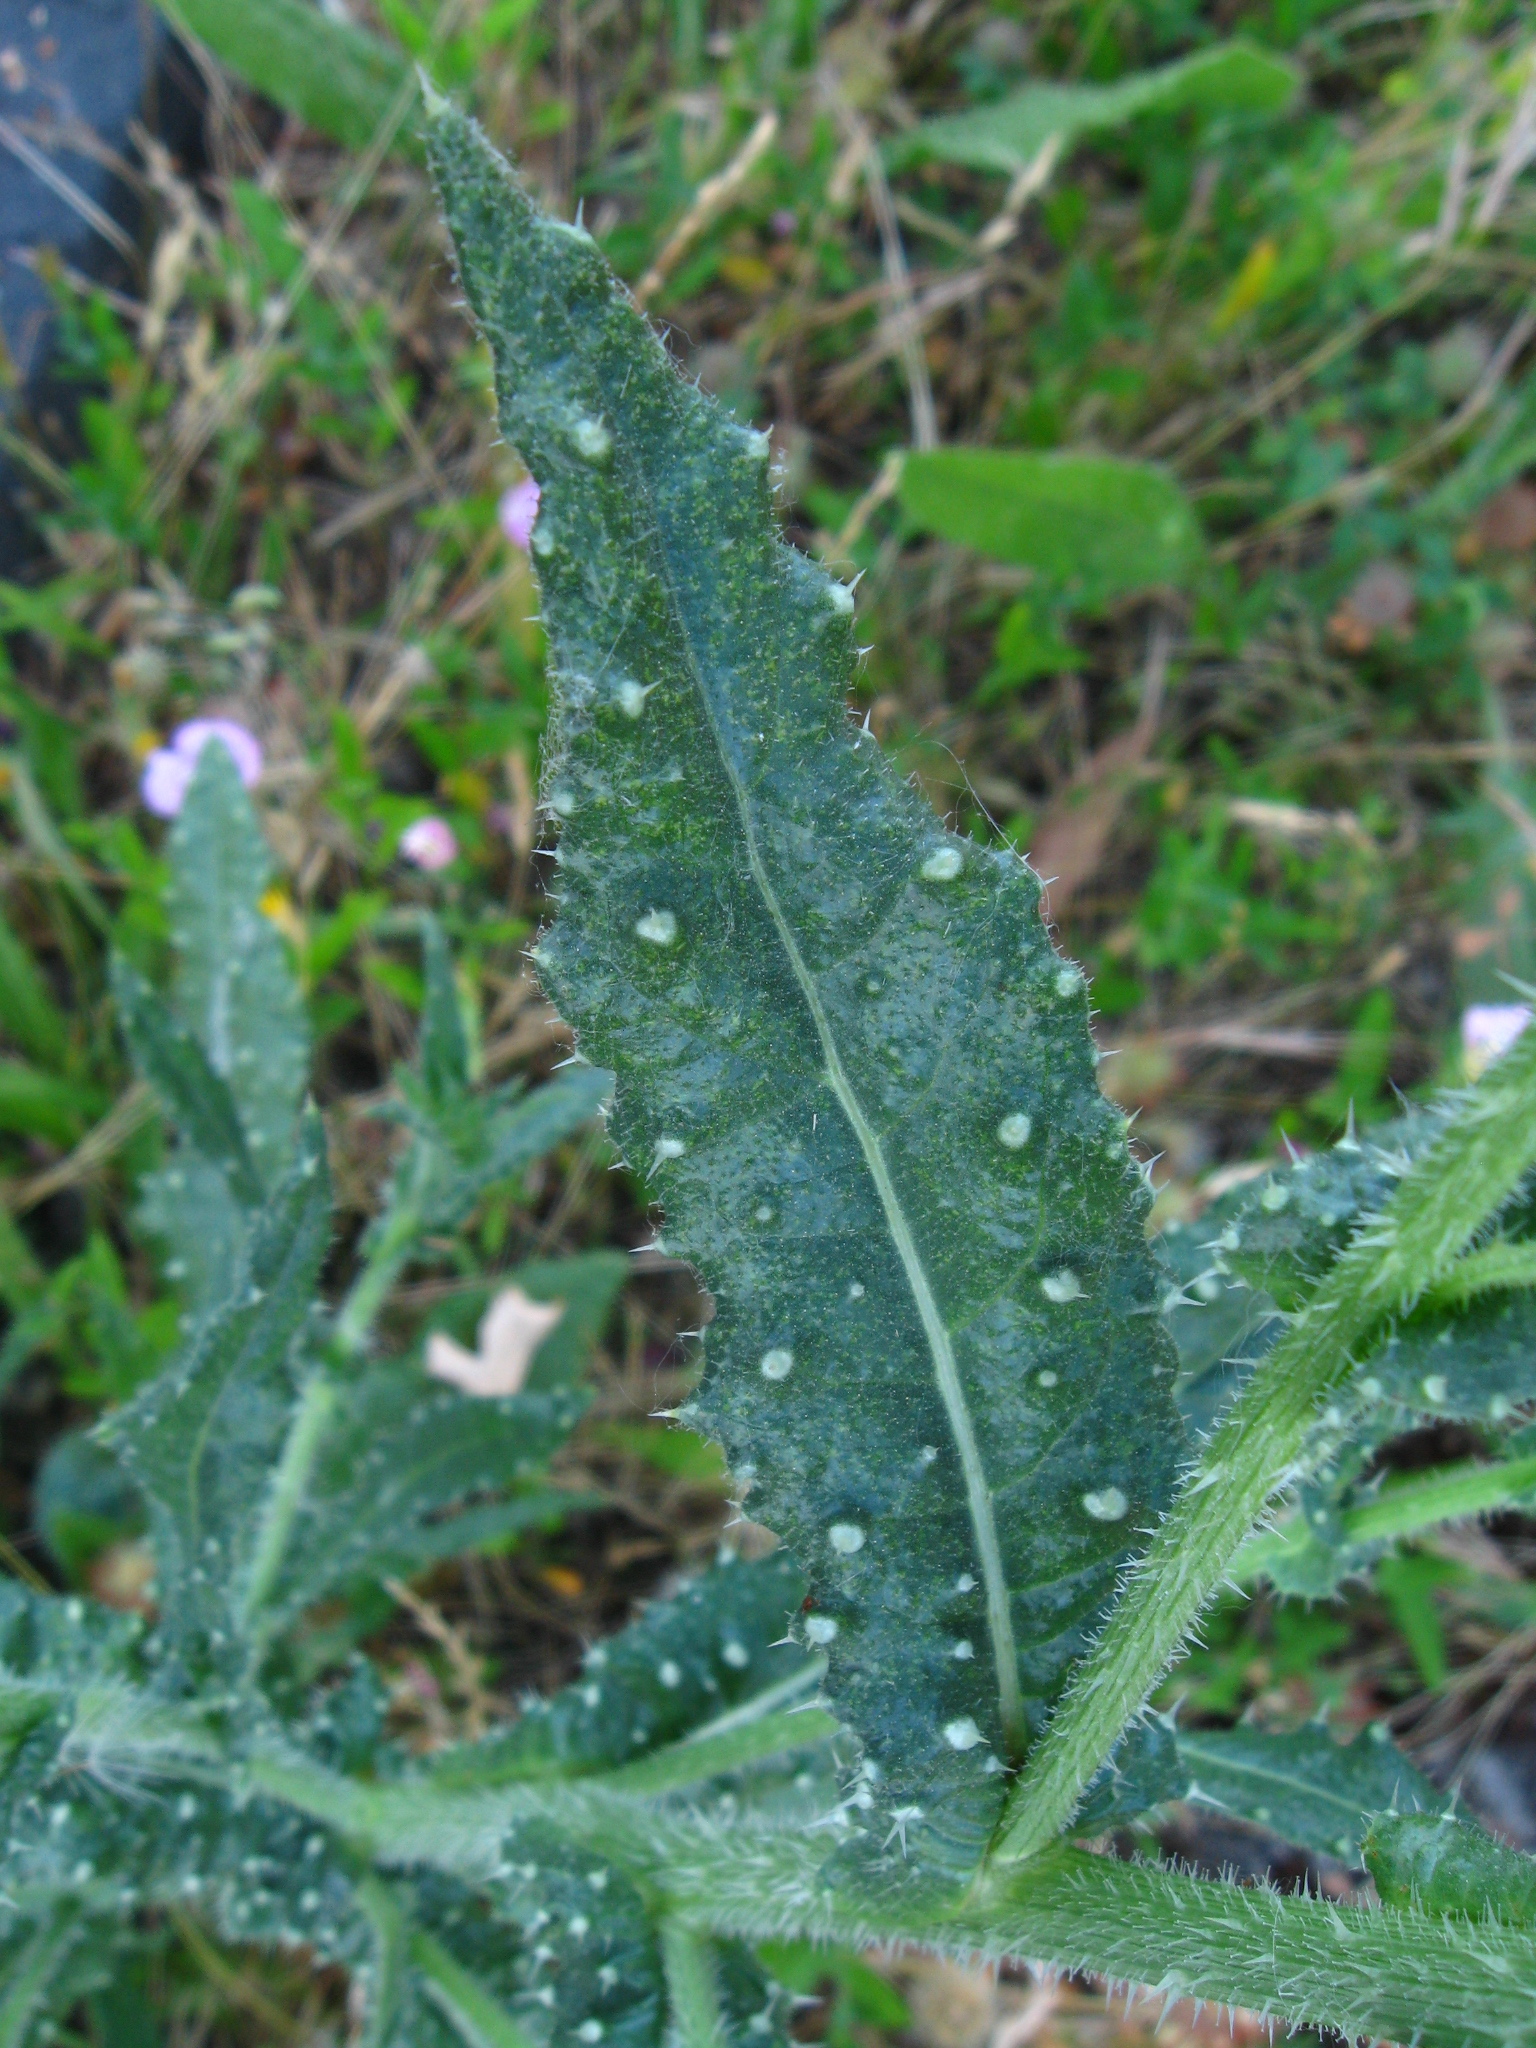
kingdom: Plantae
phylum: Tracheophyta
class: Magnoliopsida
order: Asterales
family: Asteraceae
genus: Helminthotheca
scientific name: Helminthotheca echioides
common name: Ox-tongue
